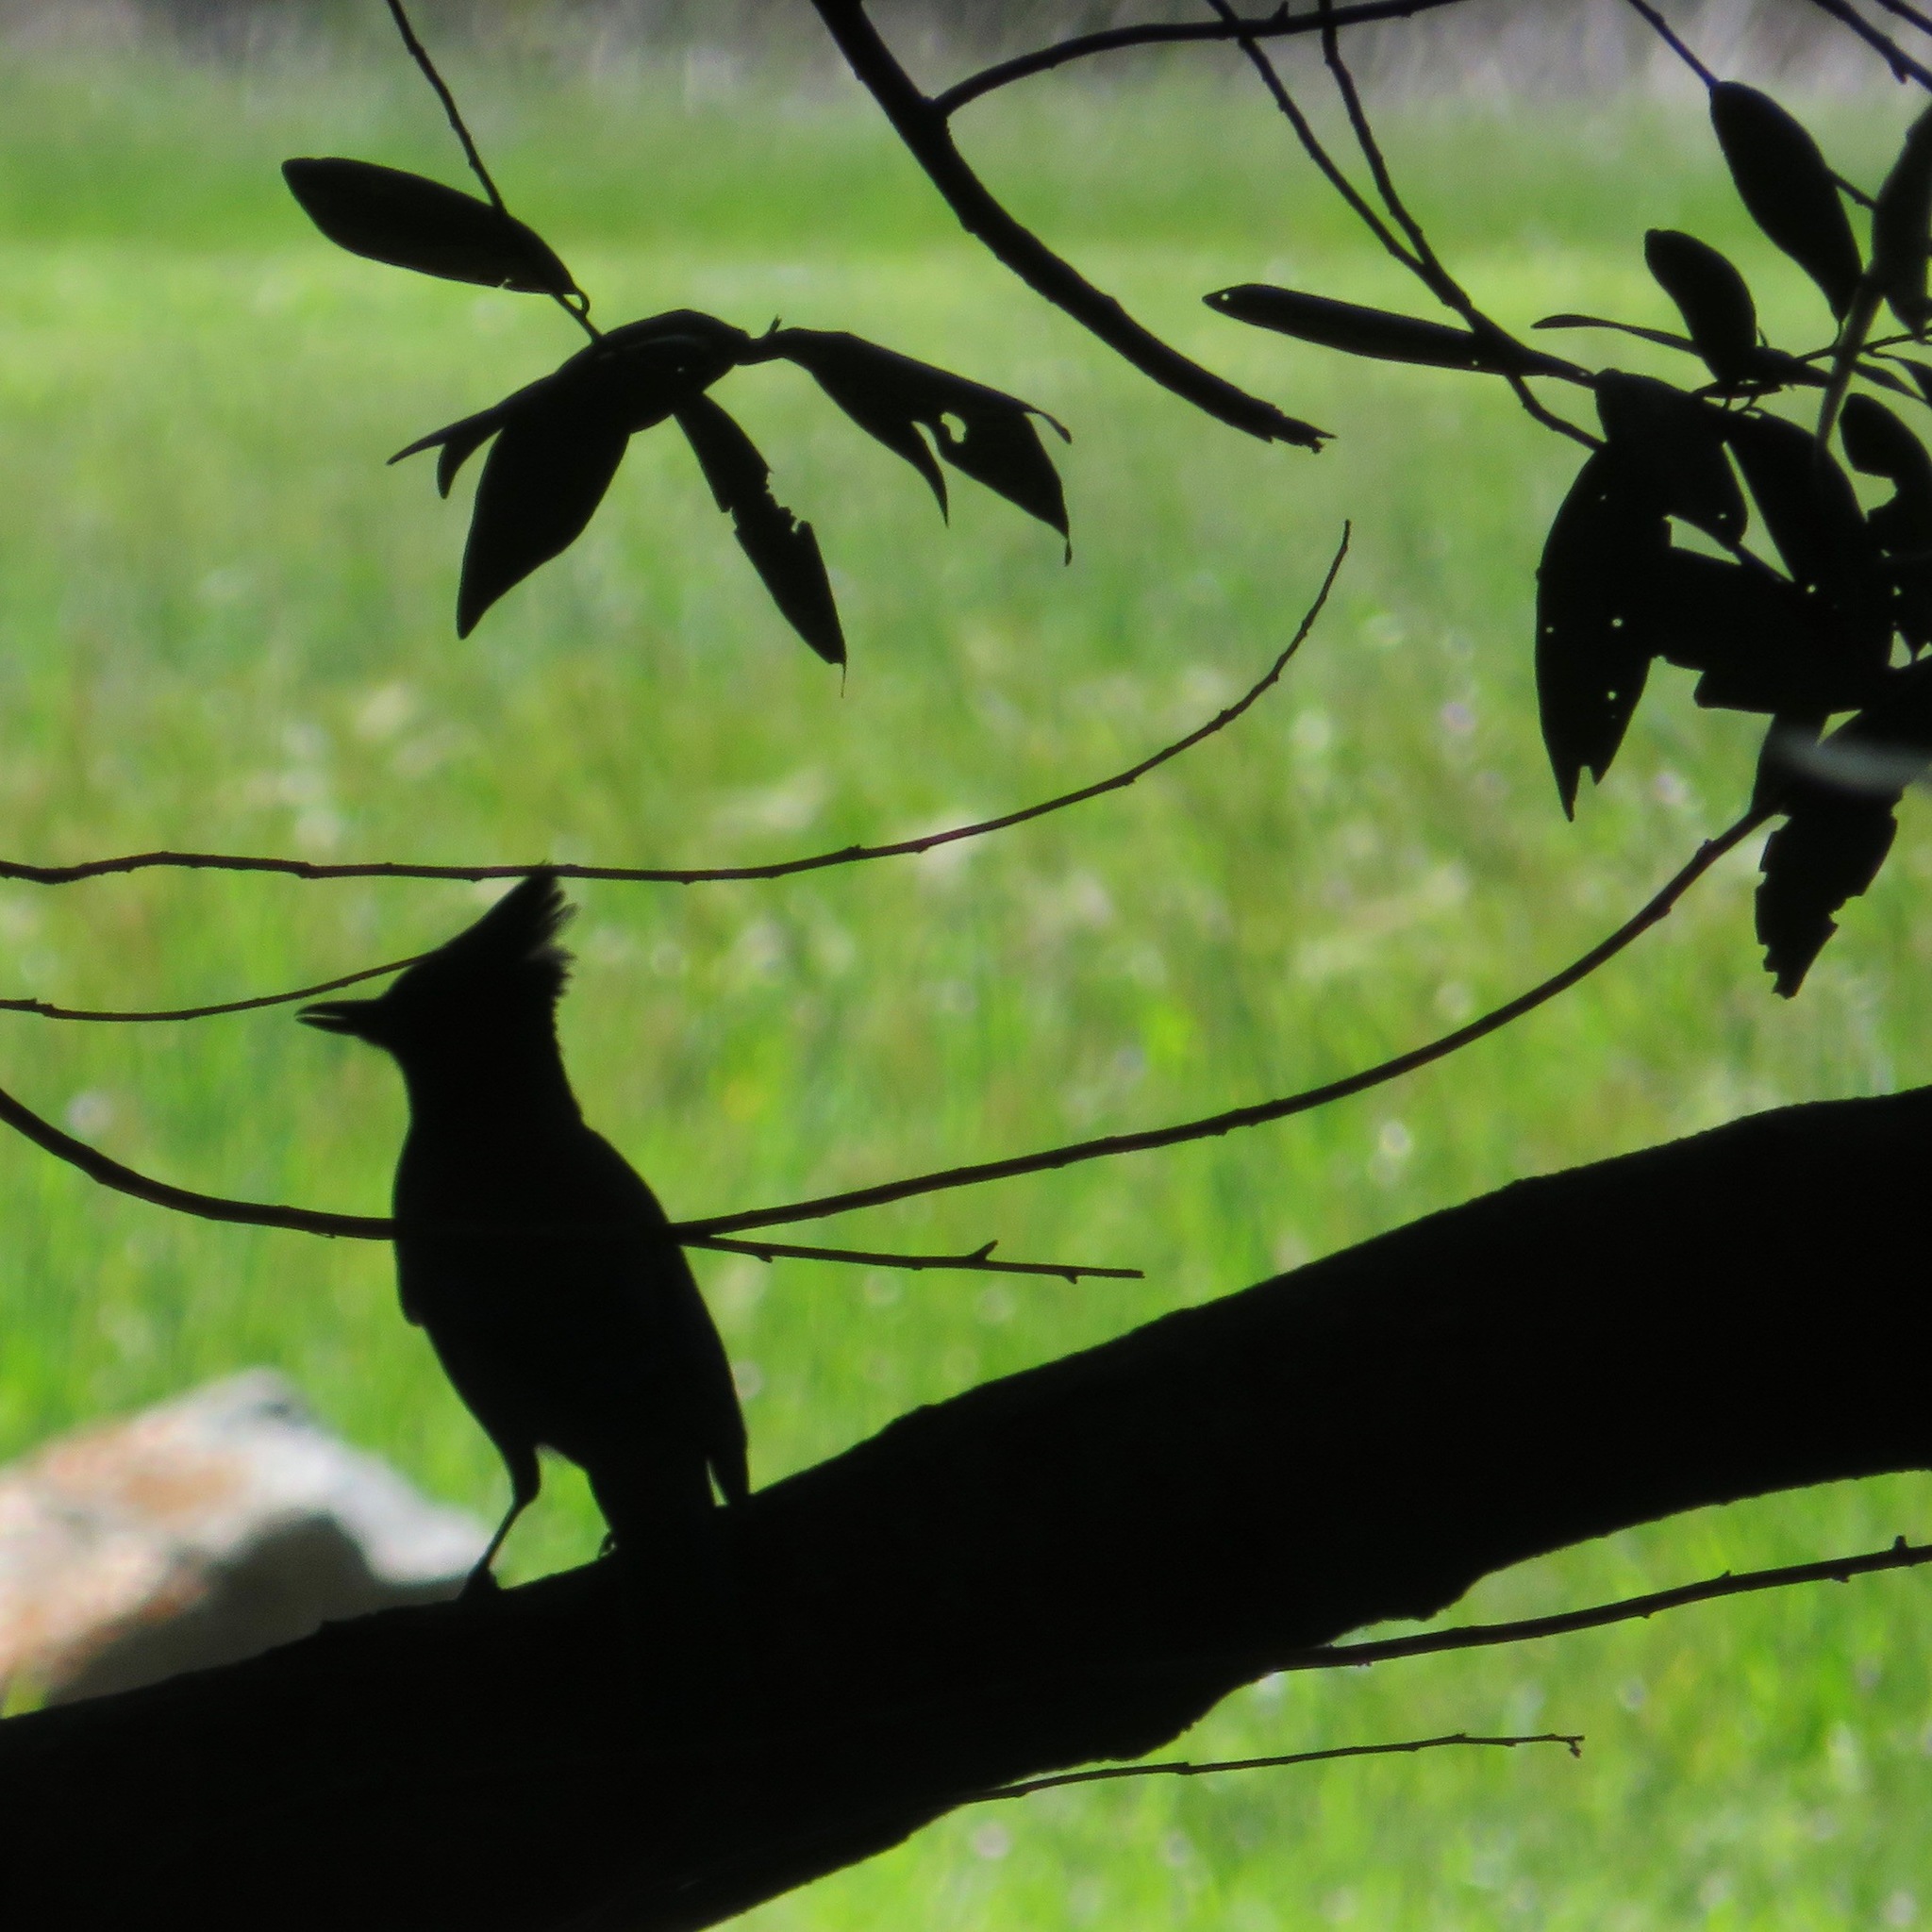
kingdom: Animalia
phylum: Chordata
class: Aves
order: Passeriformes
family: Corvidae
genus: Cyanocitta
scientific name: Cyanocitta stelleri
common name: Steller's jay
